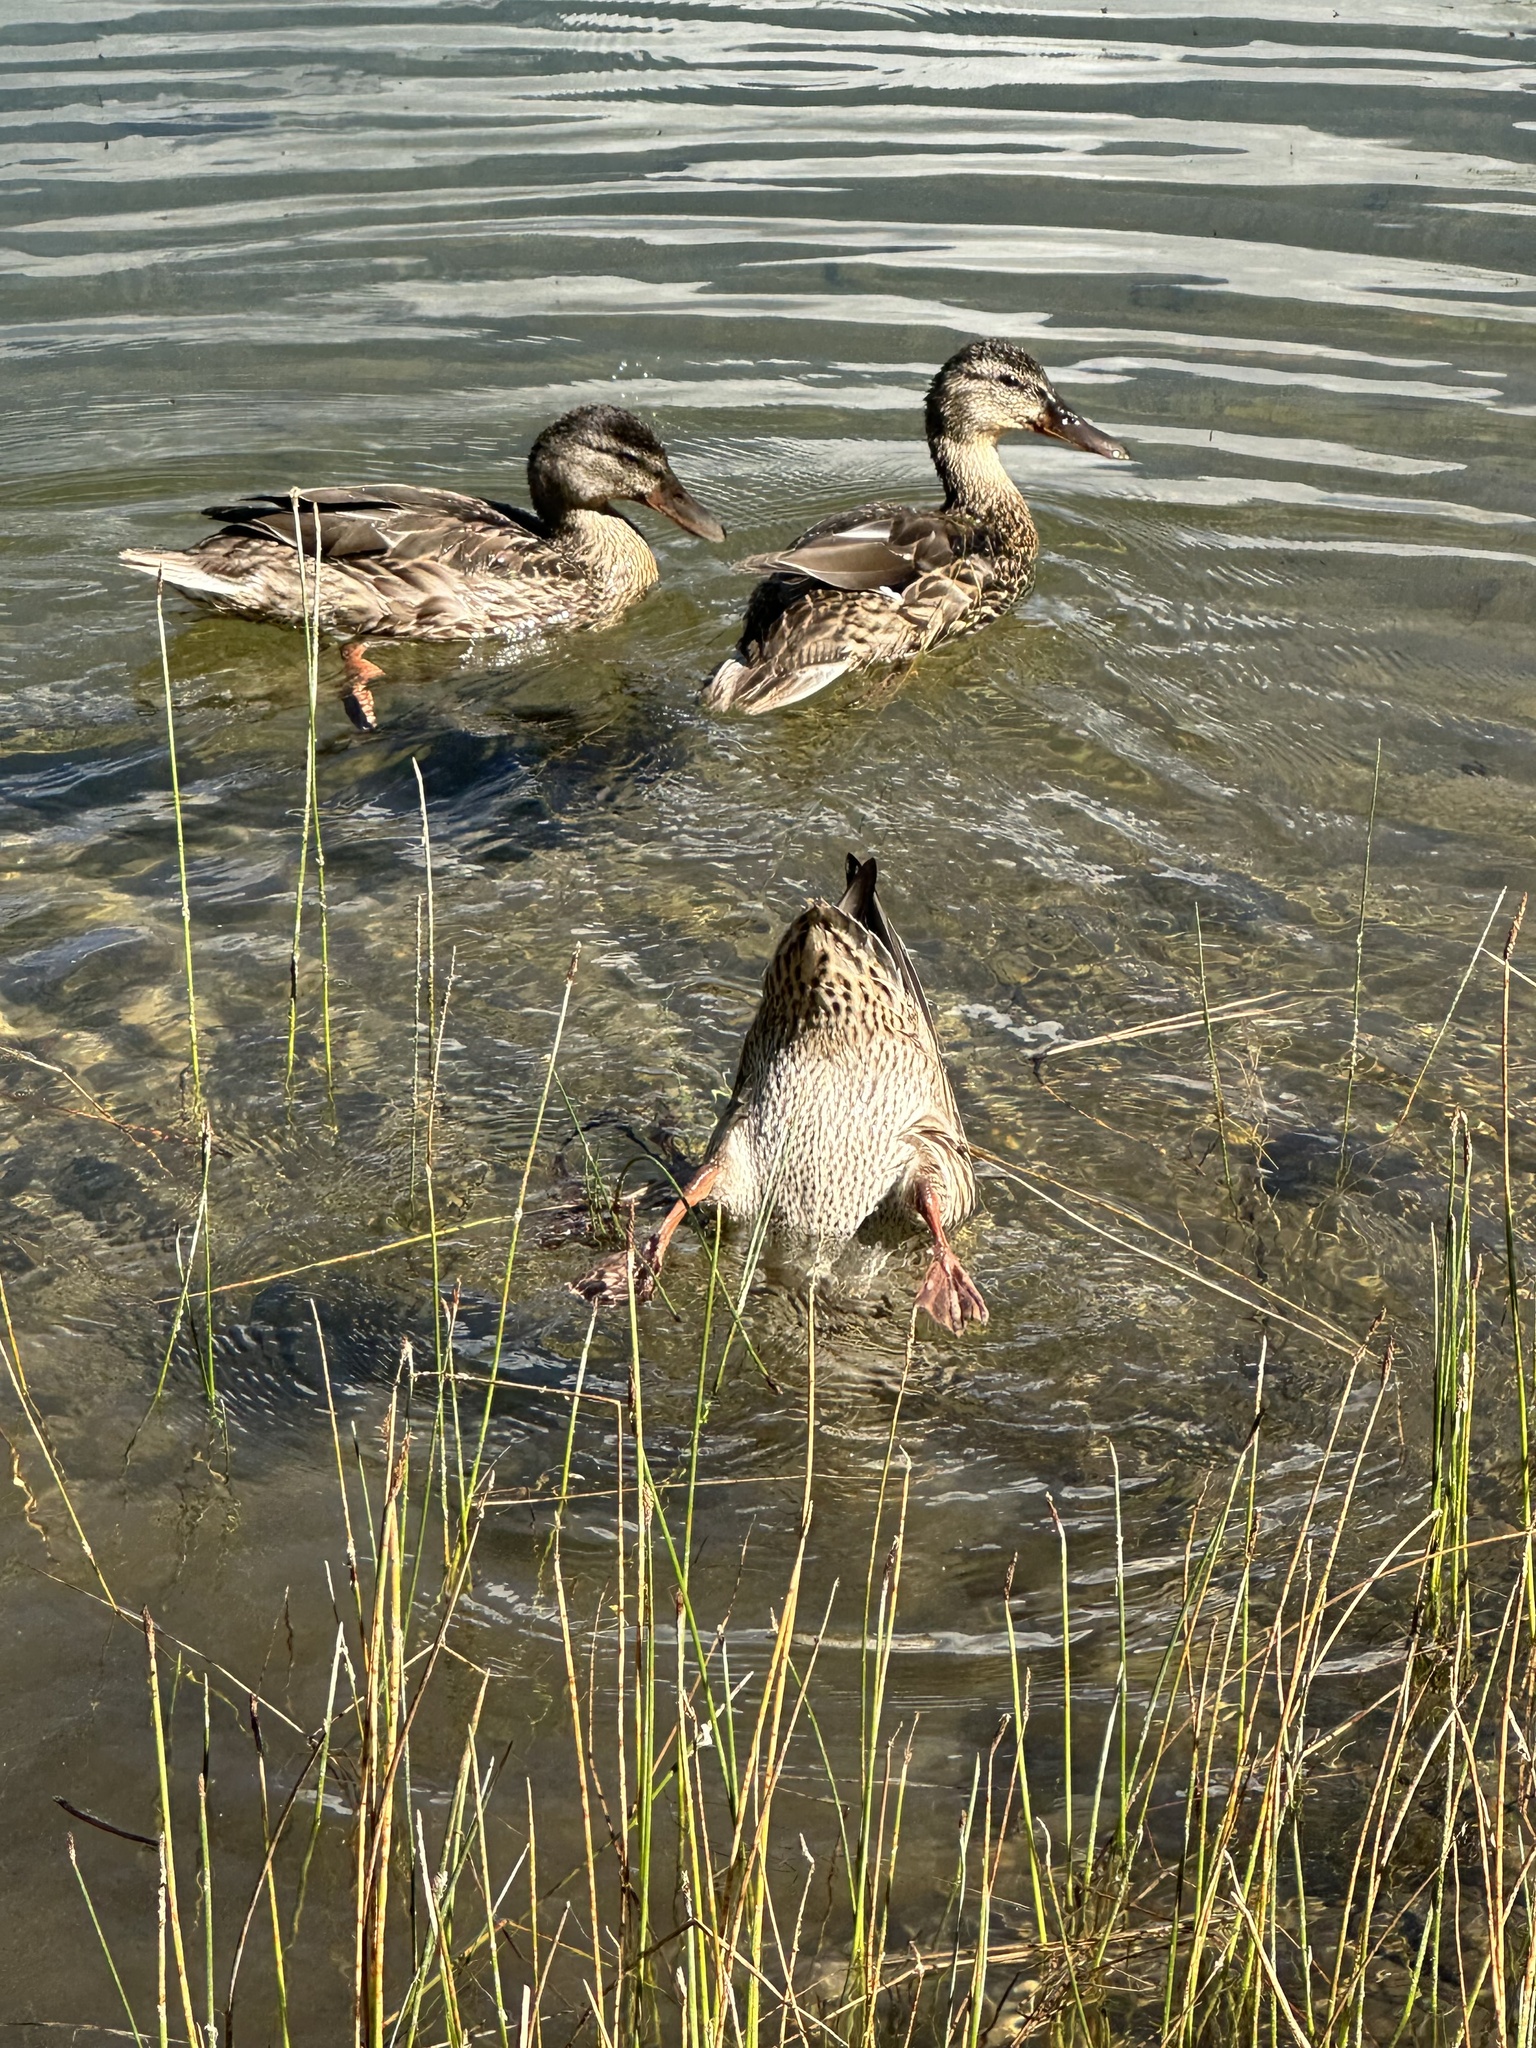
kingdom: Animalia
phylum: Chordata
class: Aves
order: Anseriformes
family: Anatidae
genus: Anas
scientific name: Anas platyrhynchos
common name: Mallard
